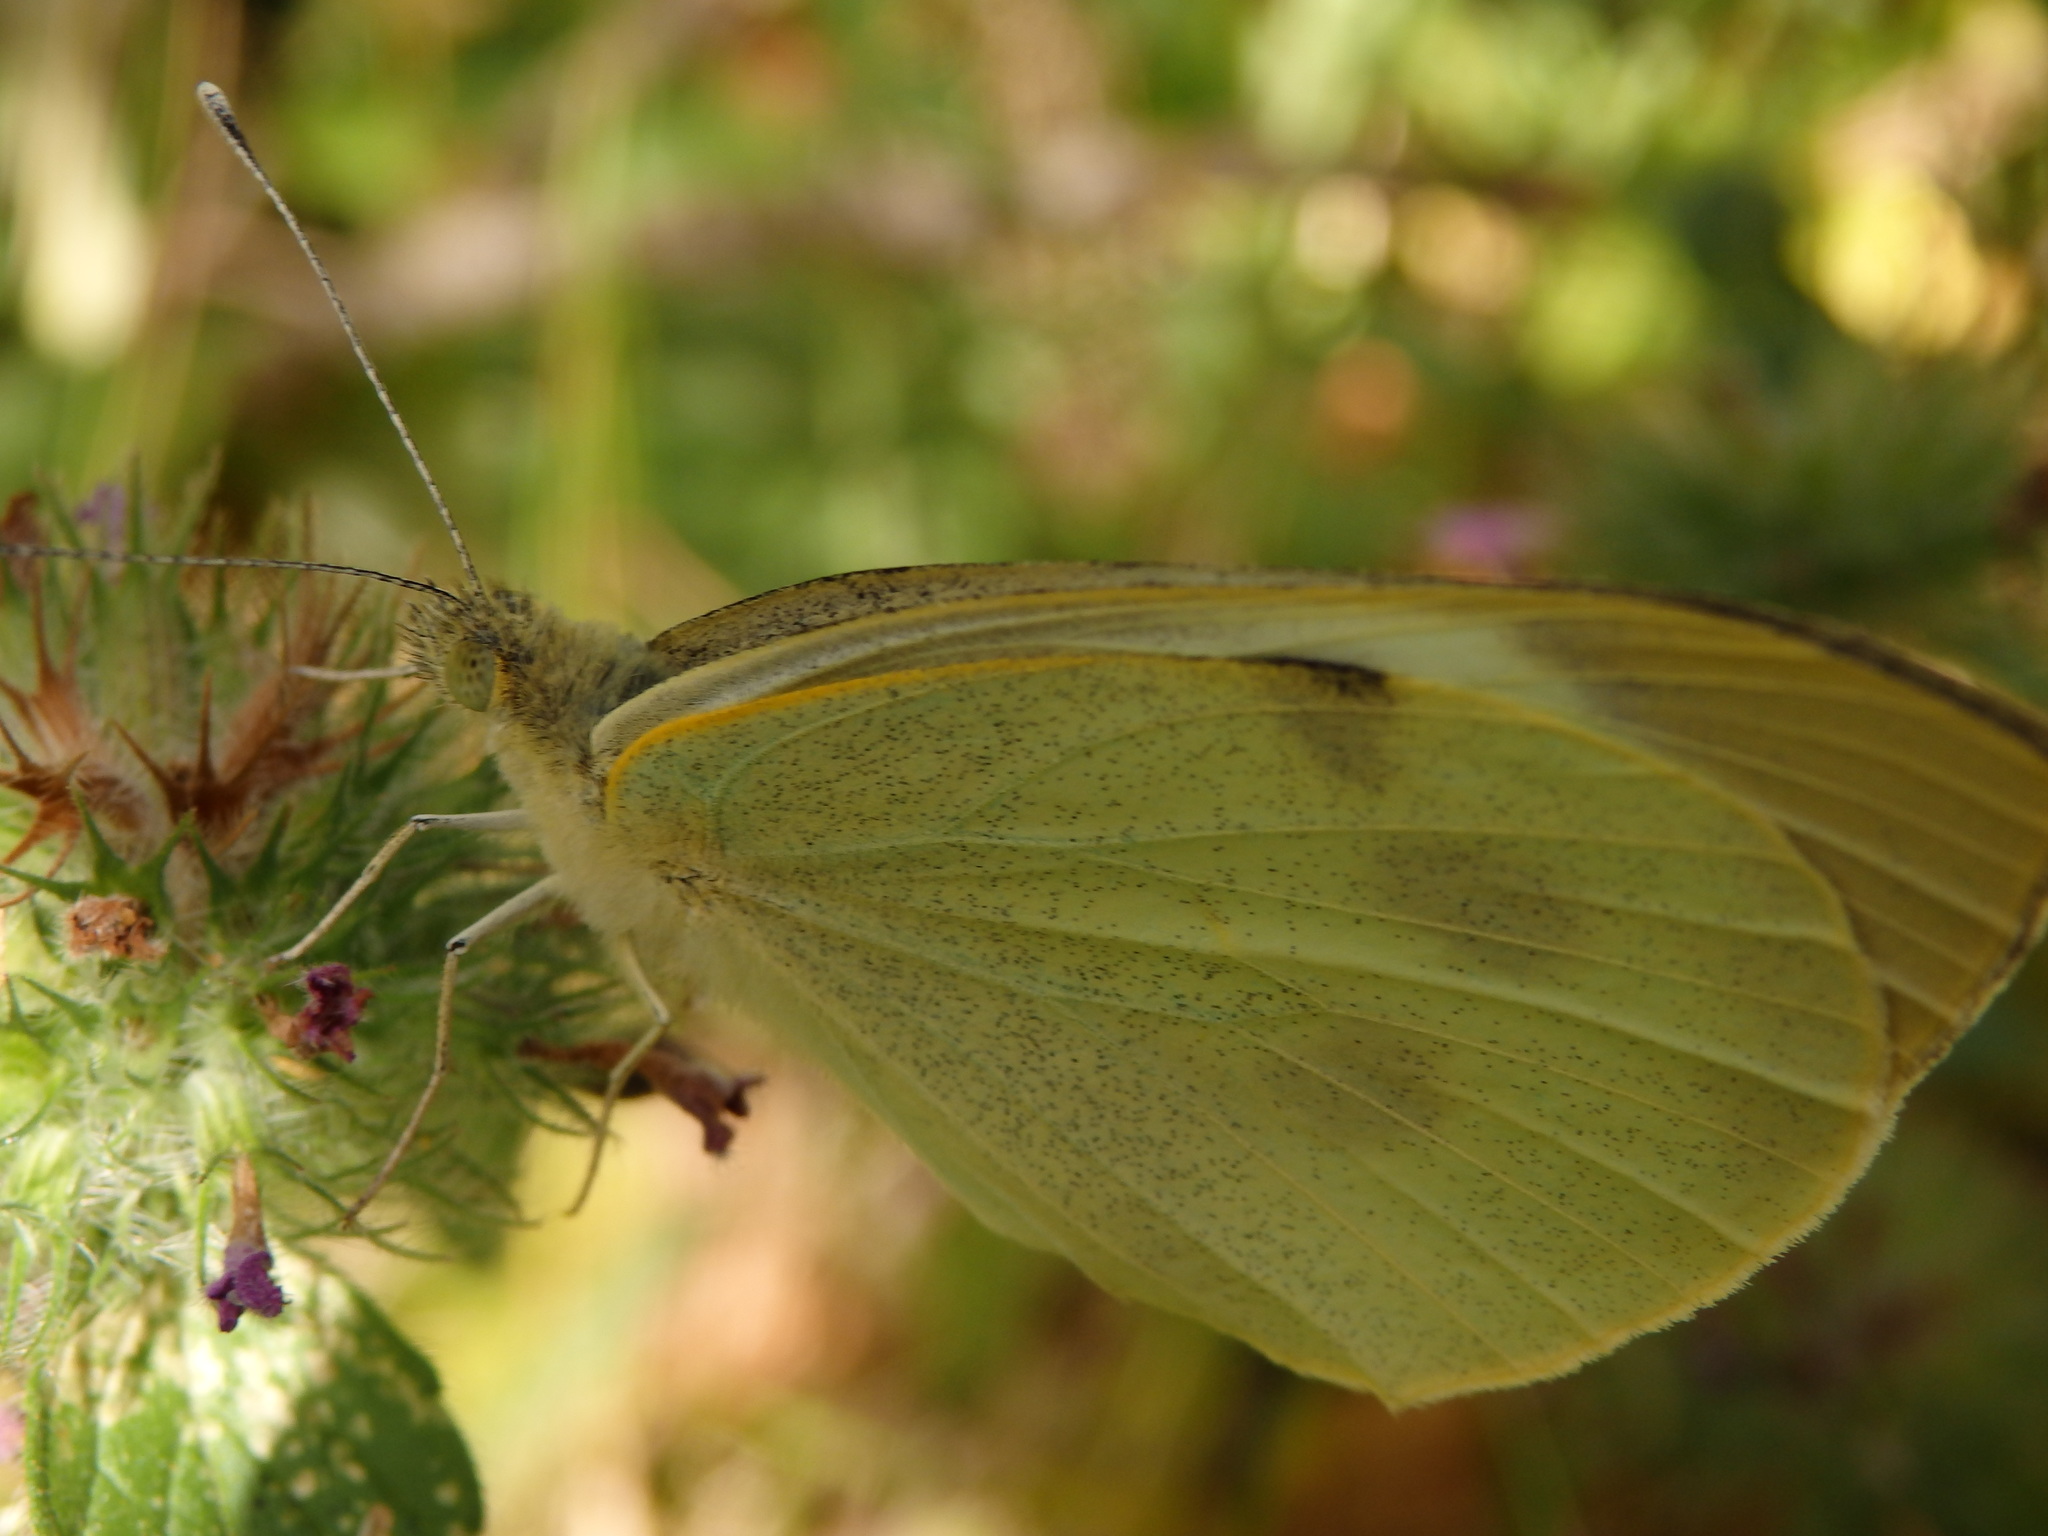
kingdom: Animalia
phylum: Arthropoda
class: Insecta
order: Lepidoptera
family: Pieridae
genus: Pieris
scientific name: Pieris brassicae
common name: Large white
